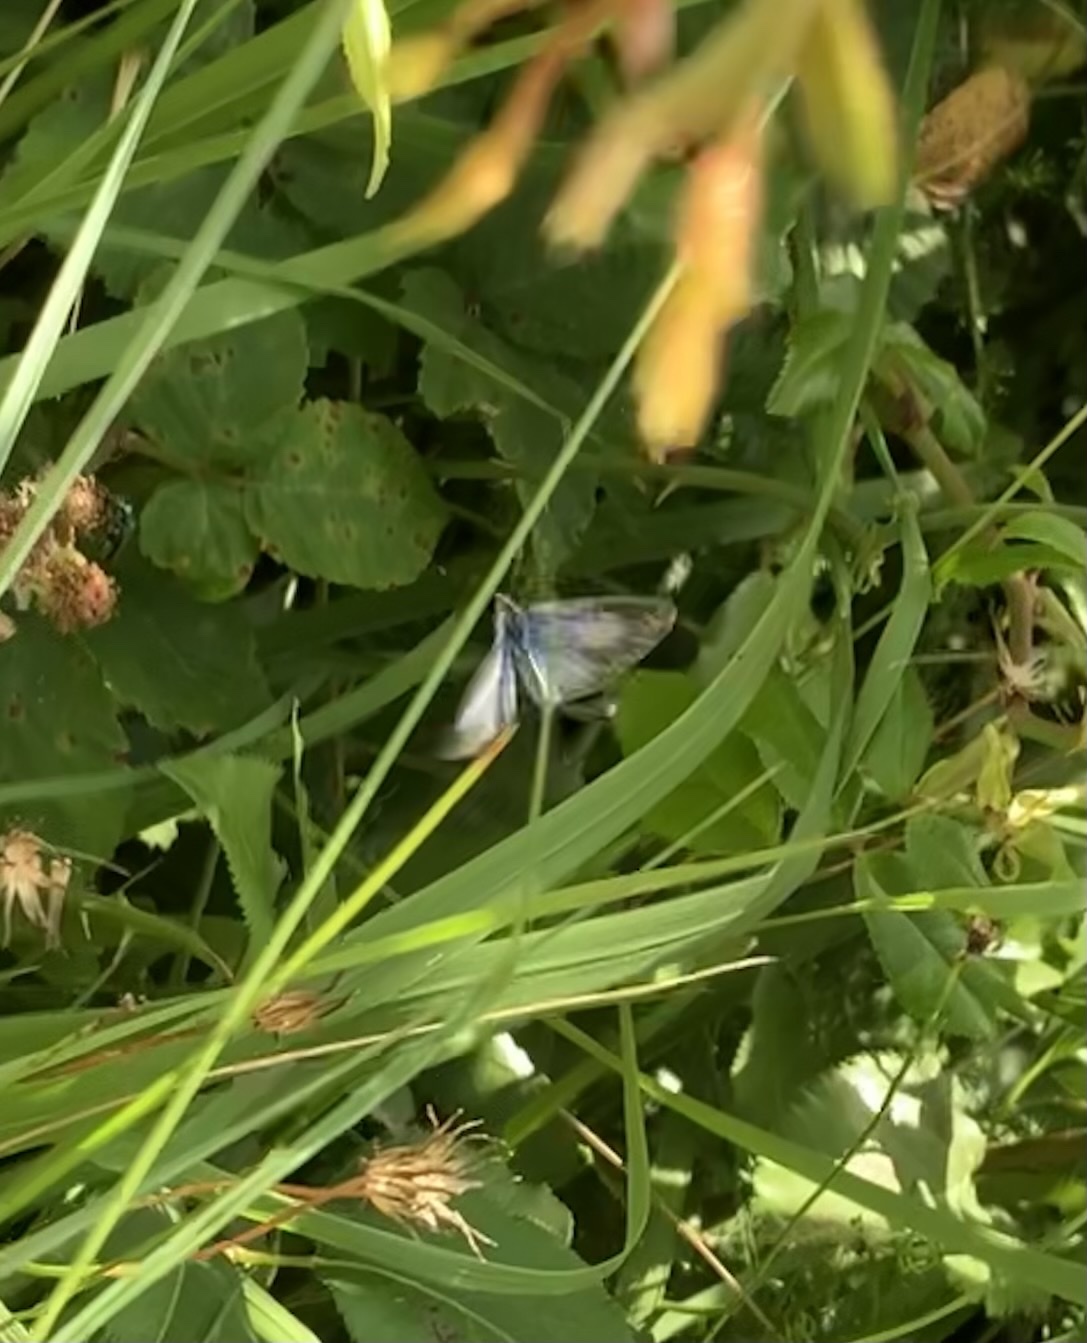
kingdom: Animalia
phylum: Arthropoda
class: Insecta
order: Lepidoptera
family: Lycaenidae
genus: Celastrina
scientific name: Celastrina argiolus
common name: Holly blue
